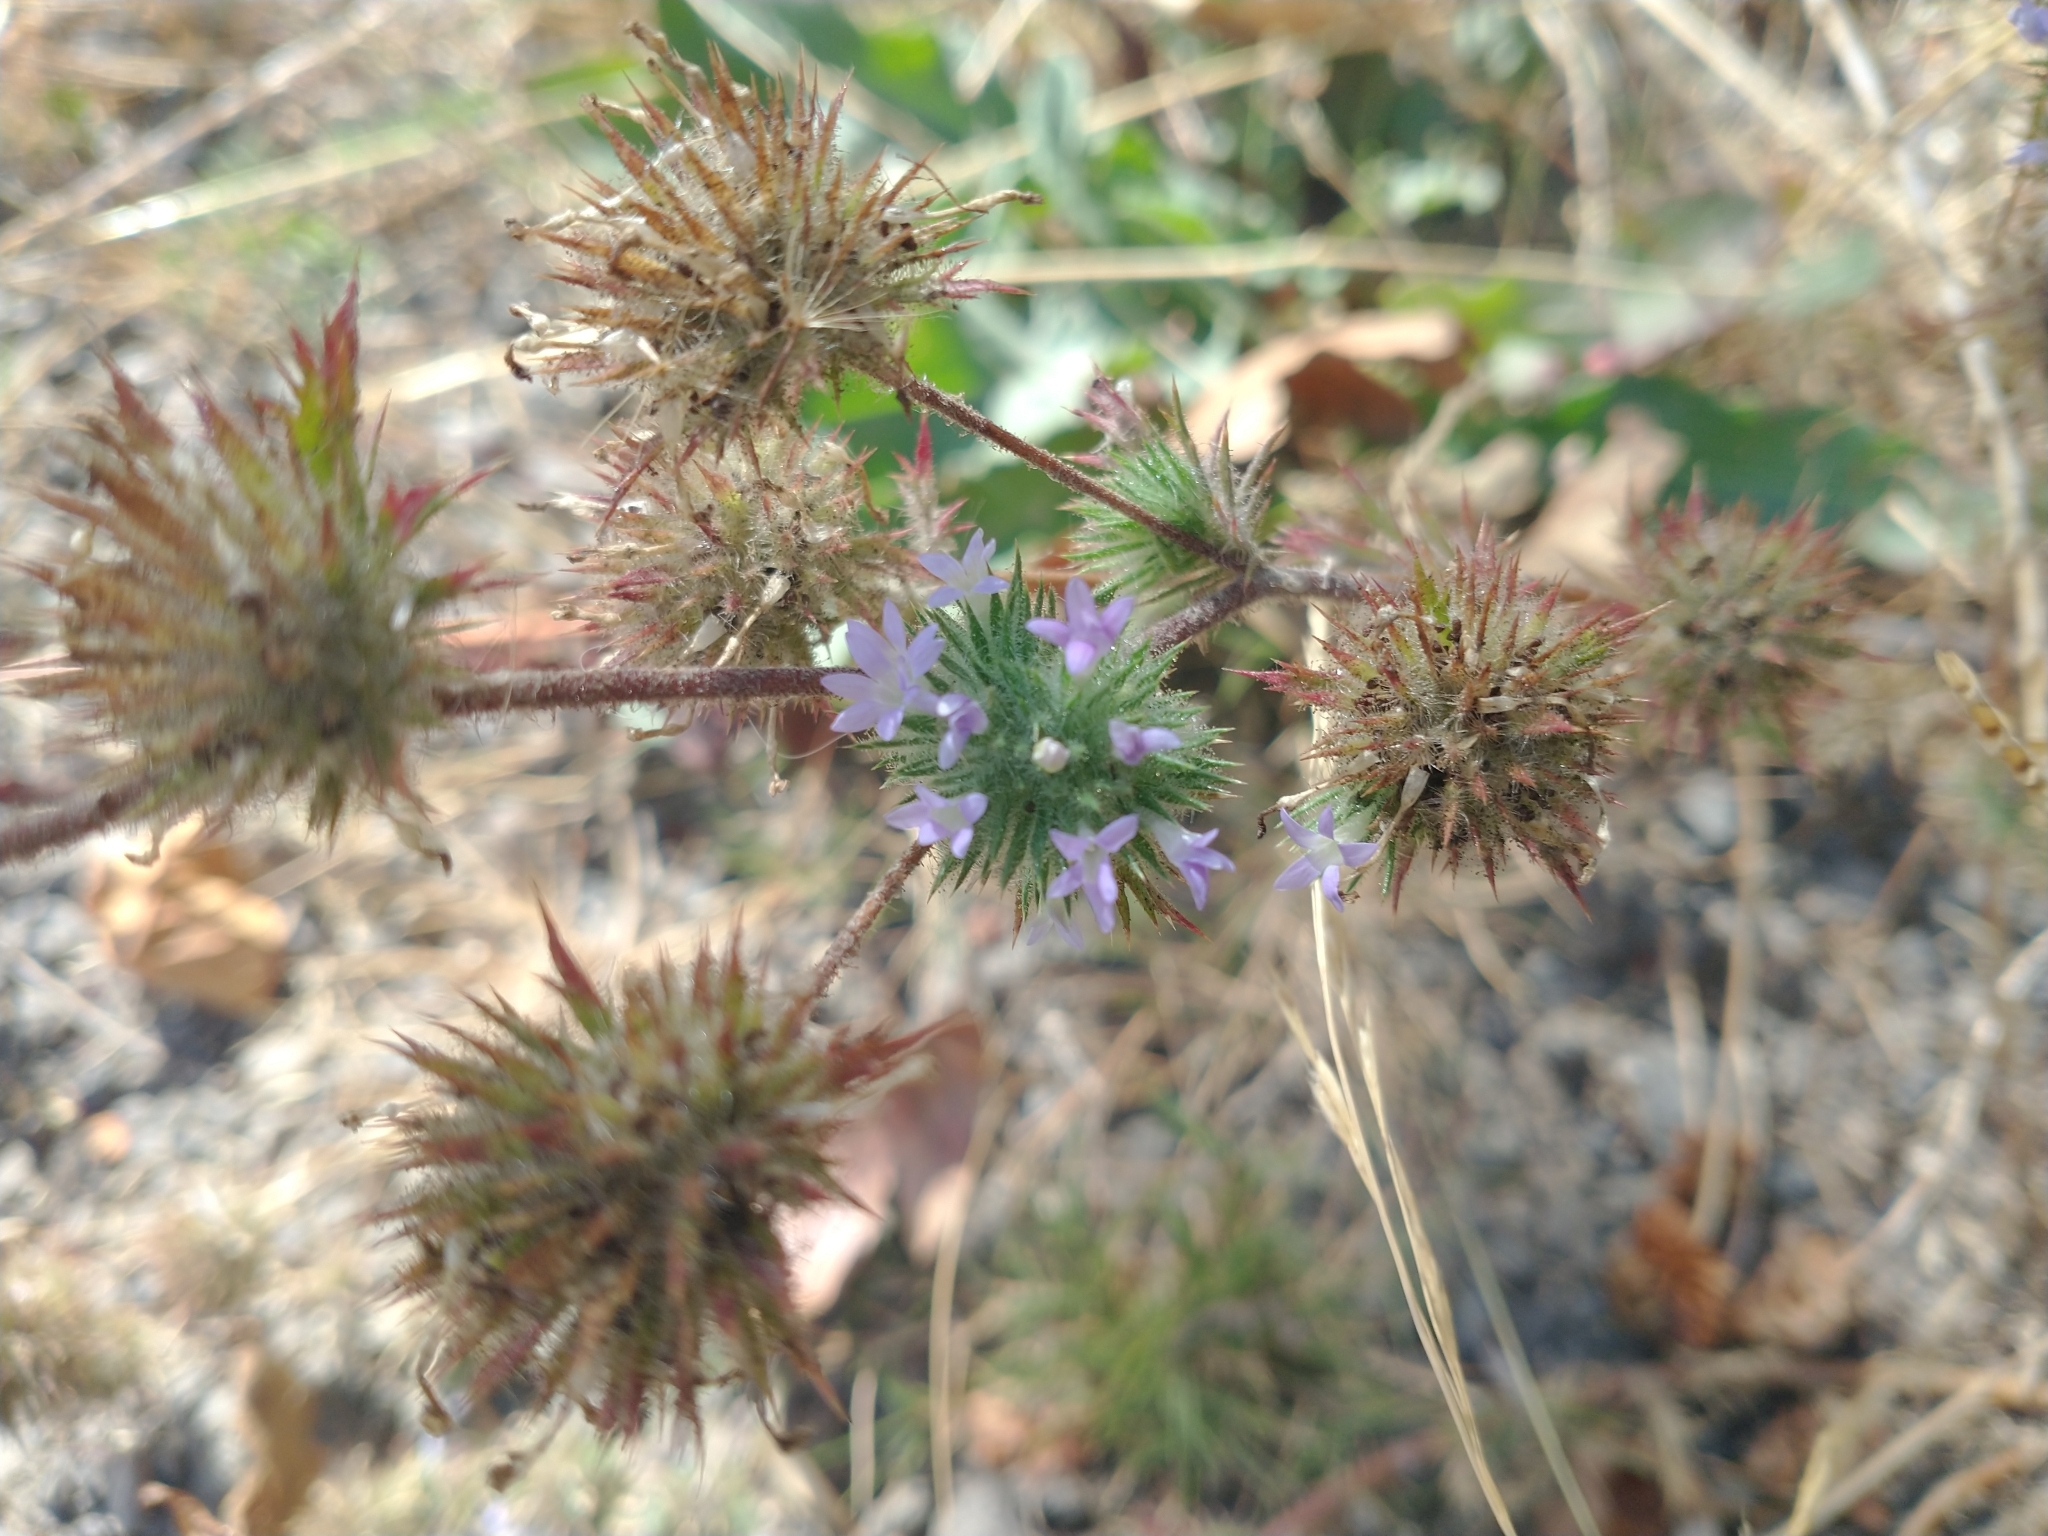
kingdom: Plantae
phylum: Tracheophyta
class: Magnoliopsida
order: Ericales
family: Polemoniaceae
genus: Navarretia
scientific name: Navarretia squarrosa
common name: Skunkweed
